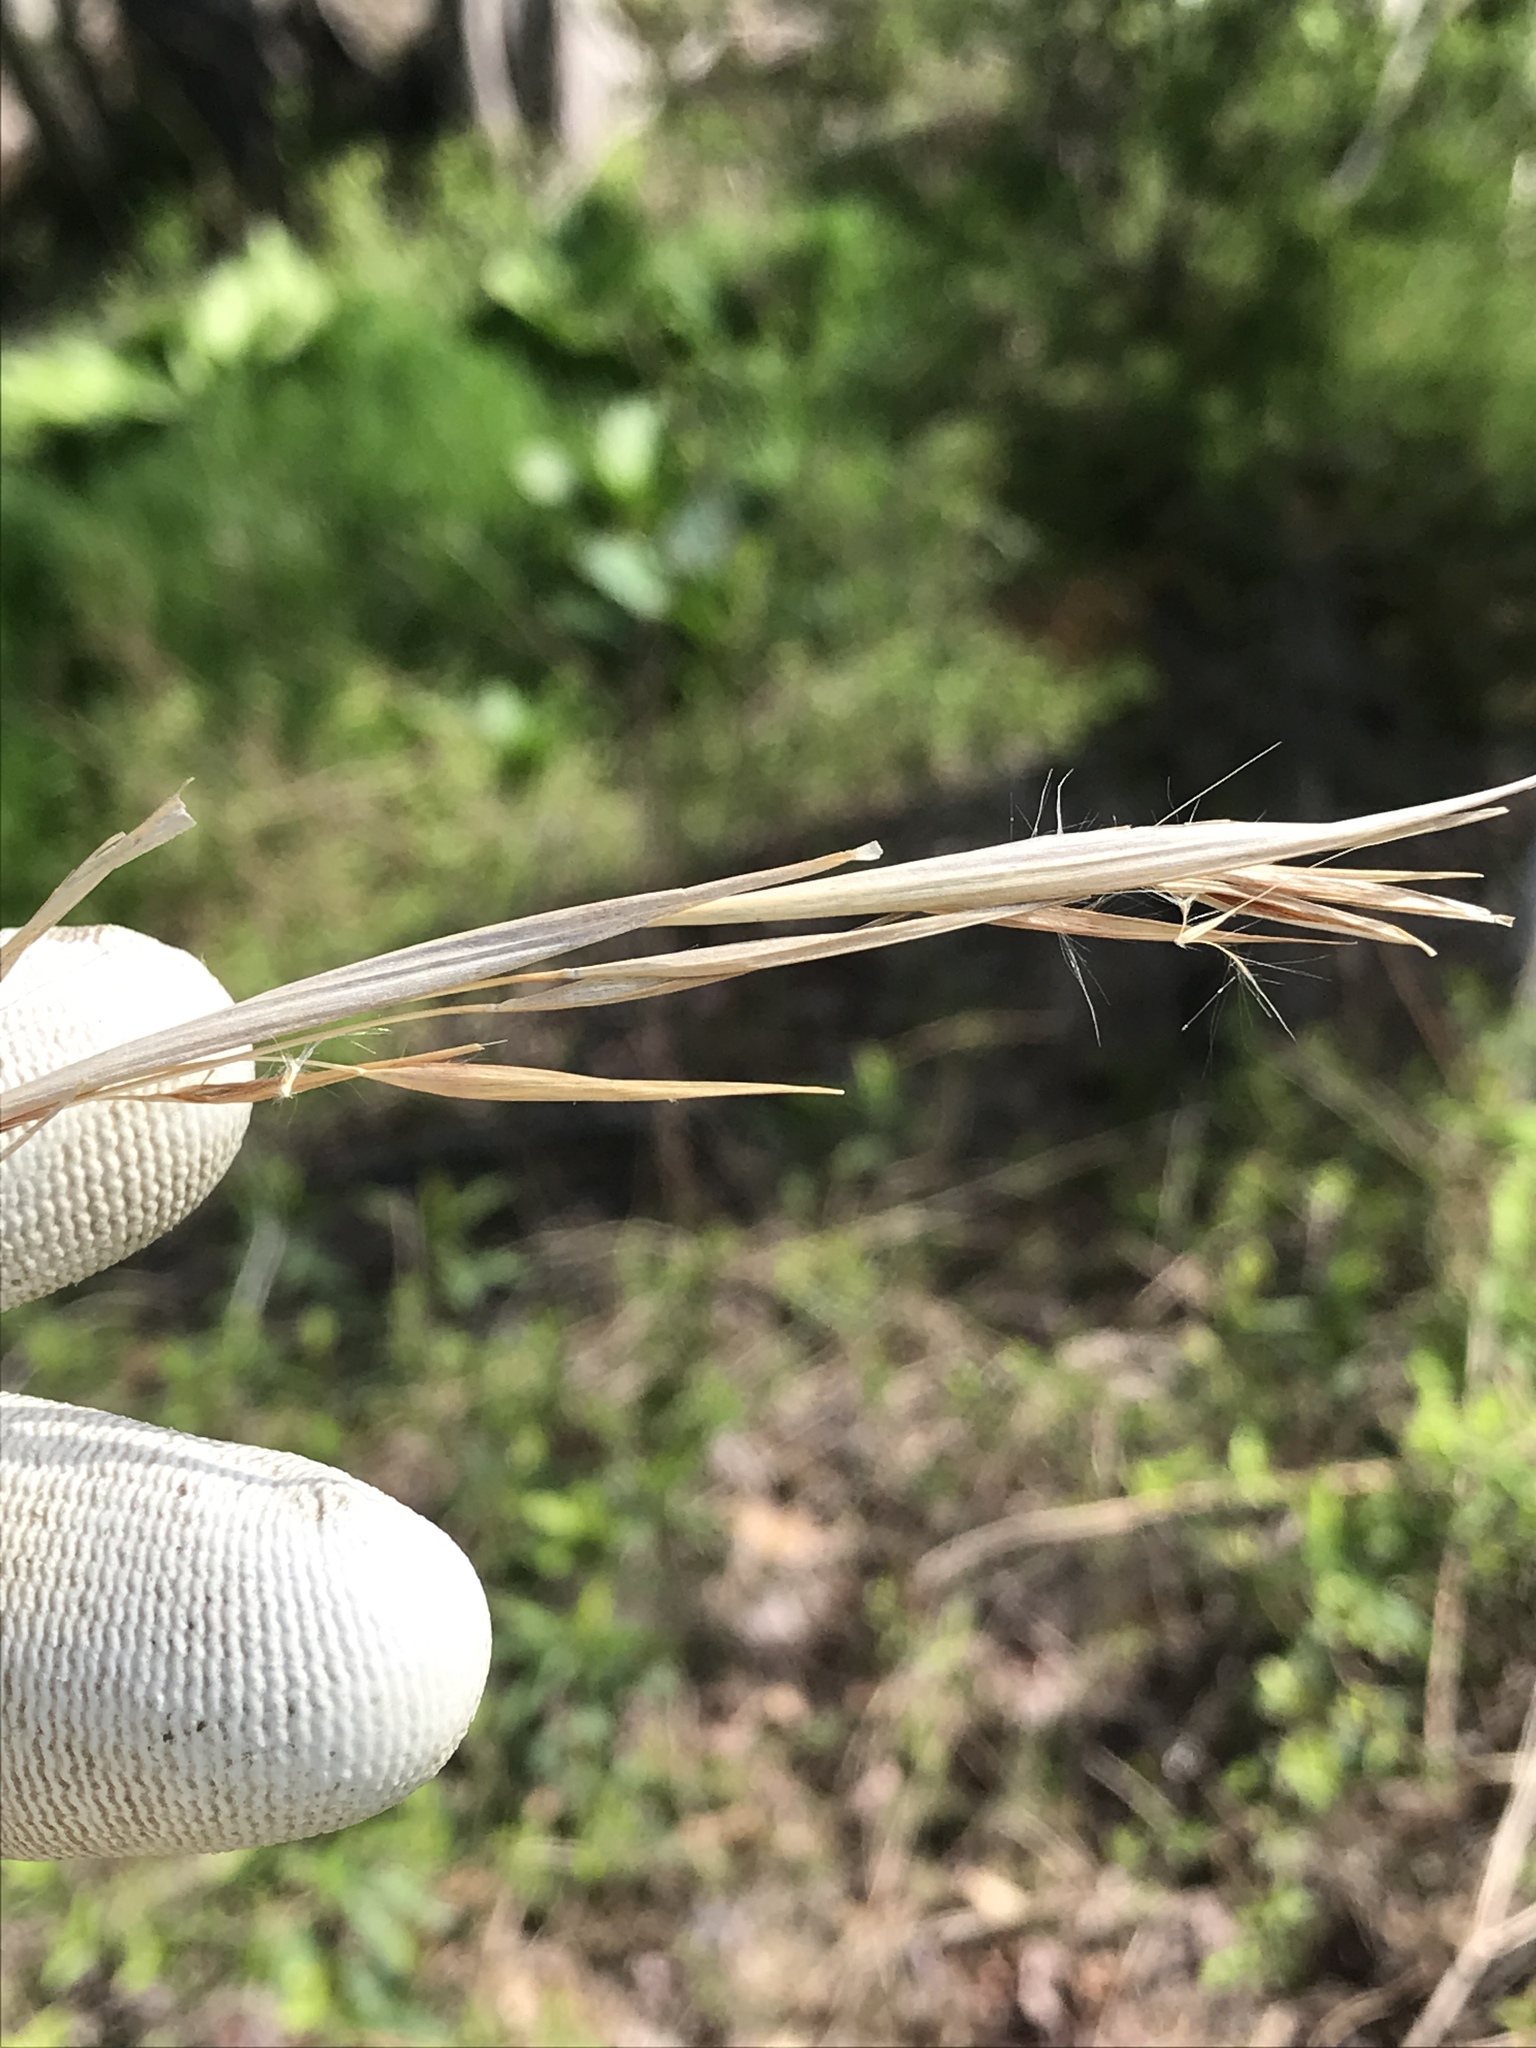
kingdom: Plantae
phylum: Tracheophyta
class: Liliopsida
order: Poales
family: Poaceae
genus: Andropogon
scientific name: Andropogon virginicus
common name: Broomsedge bluestem
